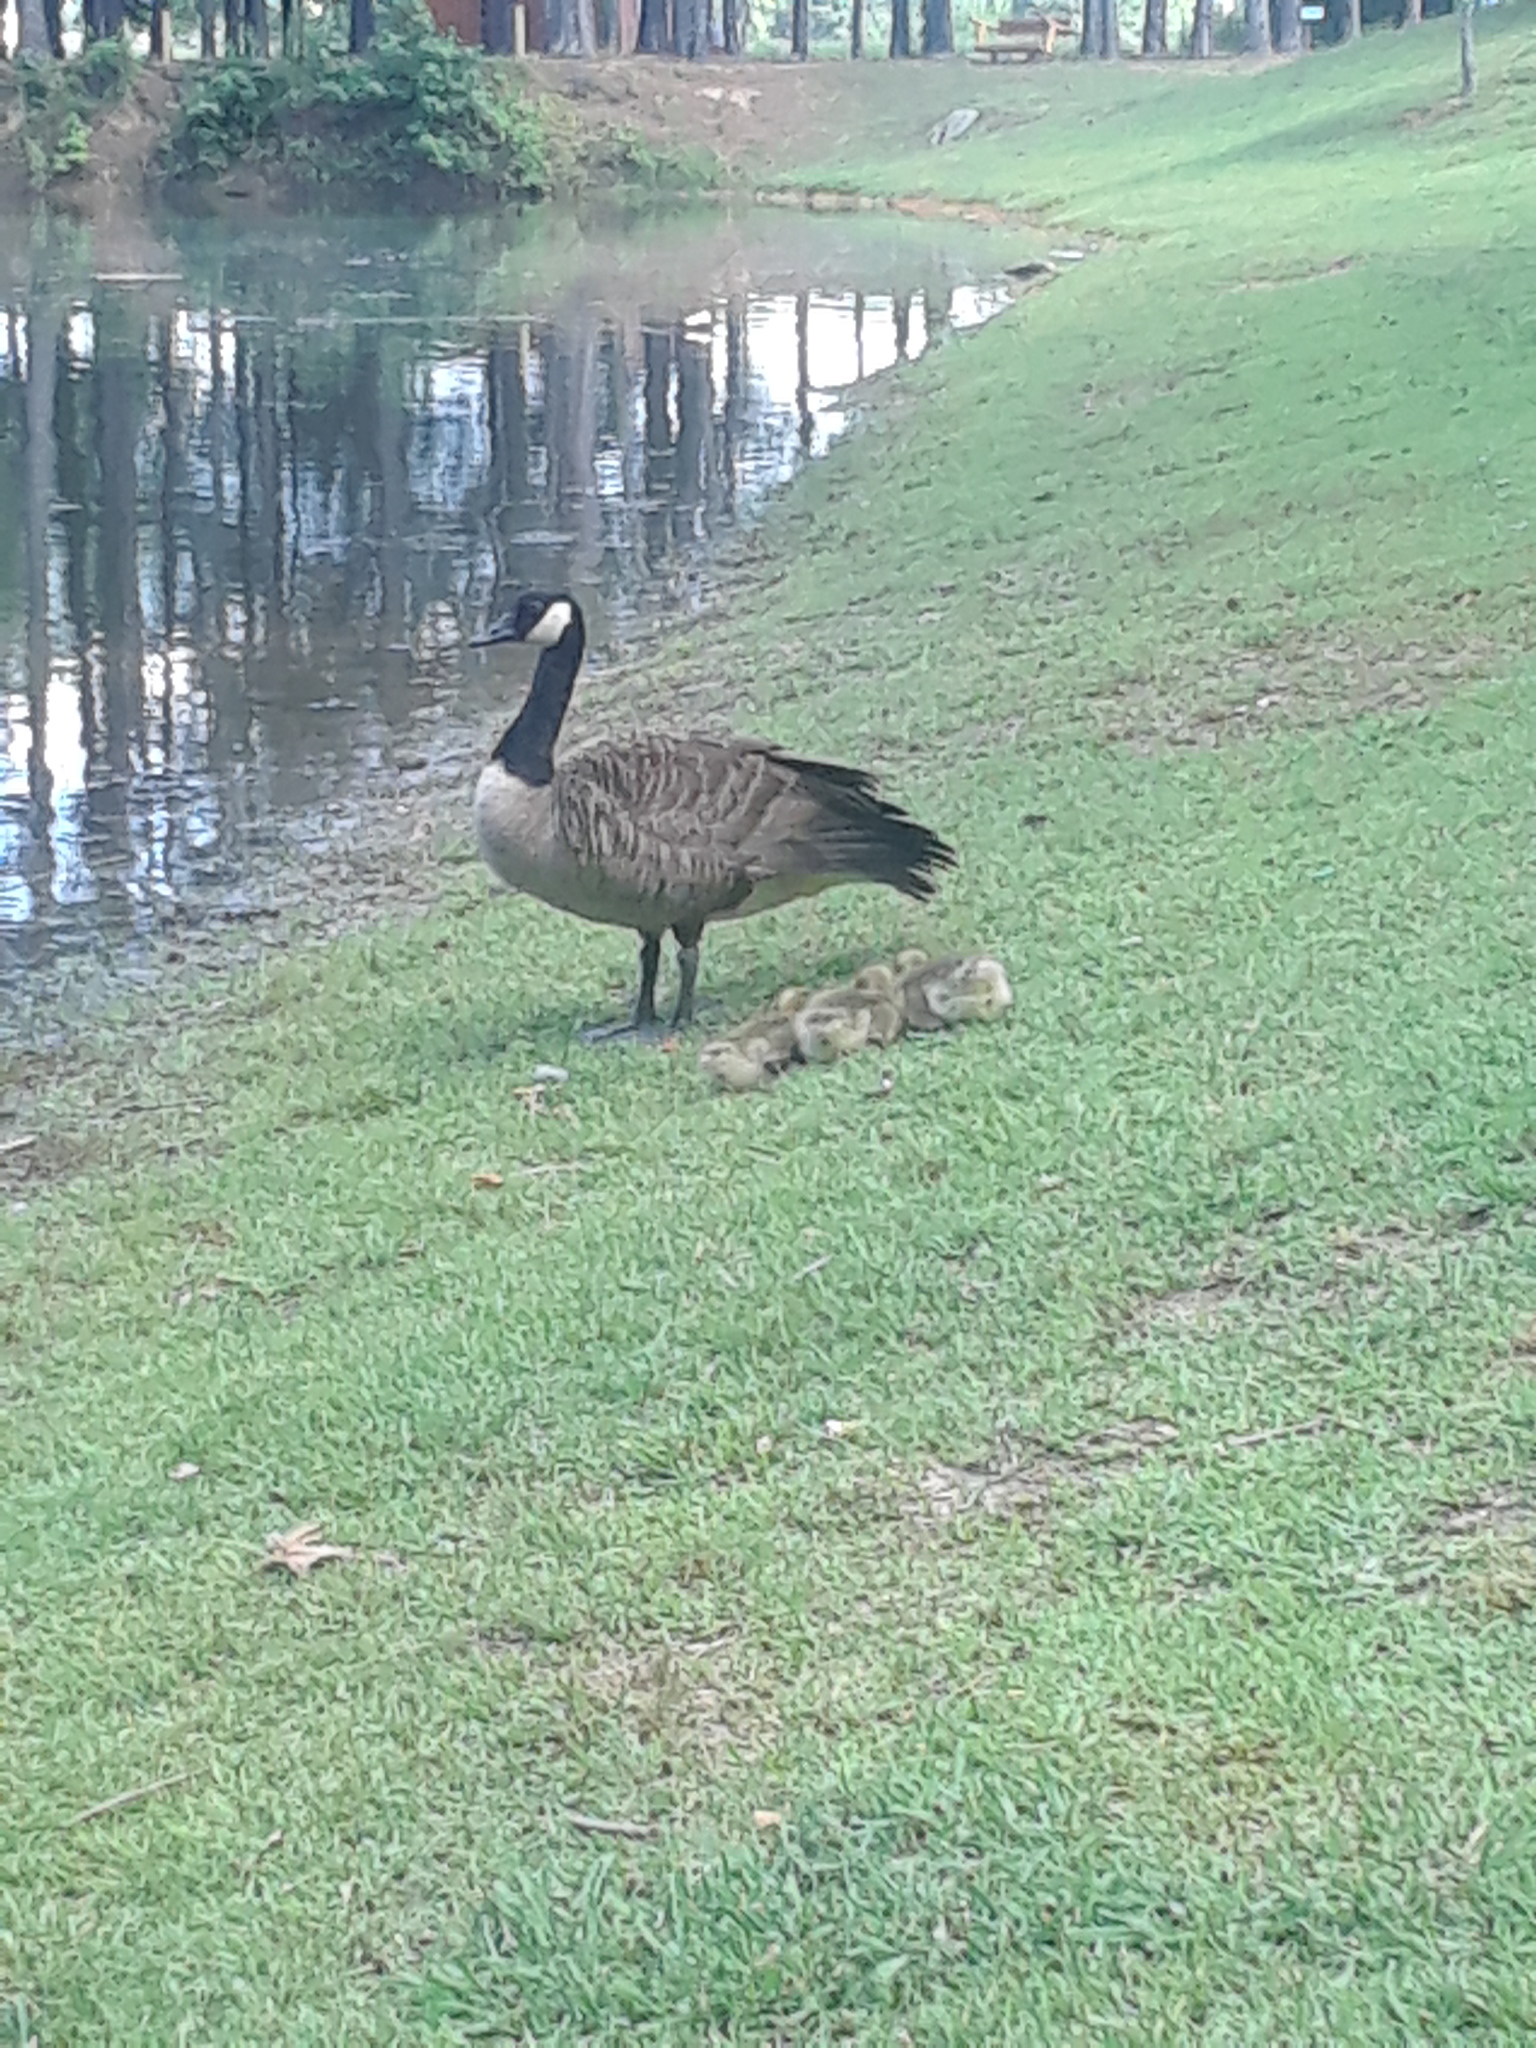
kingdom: Animalia
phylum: Chordata
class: Aves
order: Anseriformes
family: Anatidae
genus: Branta
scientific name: Branta canadensis
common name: Canada goose
